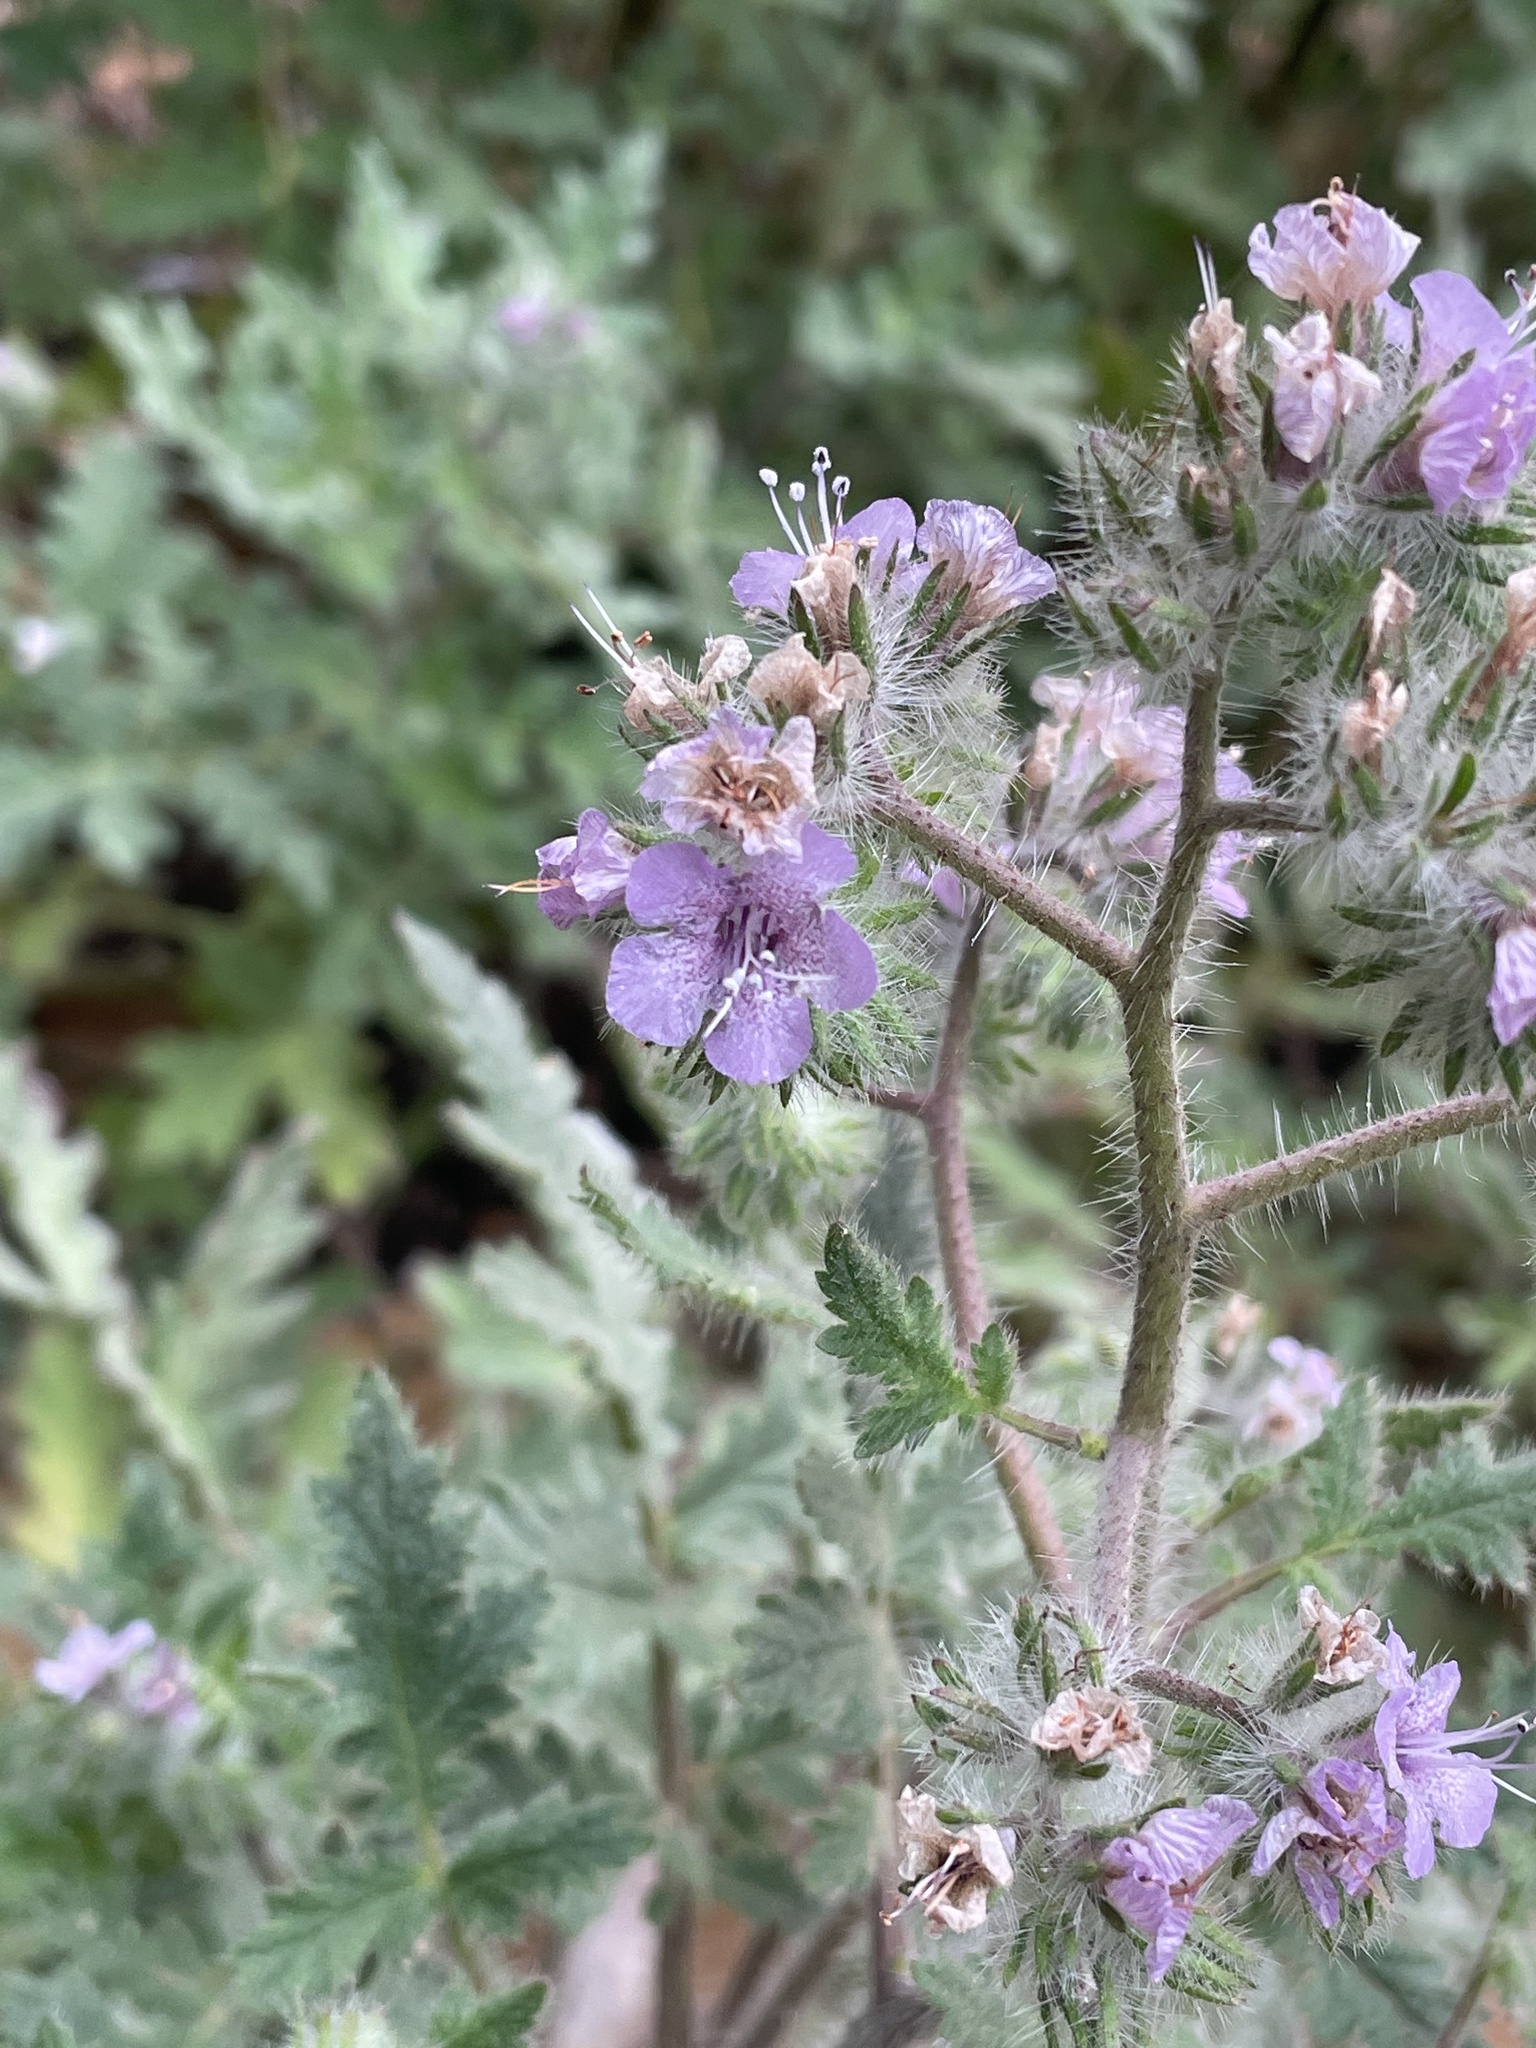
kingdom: Plantae
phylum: Tracheophyta
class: Magnoliopsida
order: Boraginales
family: Hydrophyllaceae
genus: Phacelia
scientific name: Phacelia cicutaria
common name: Caterpillar phacelia
